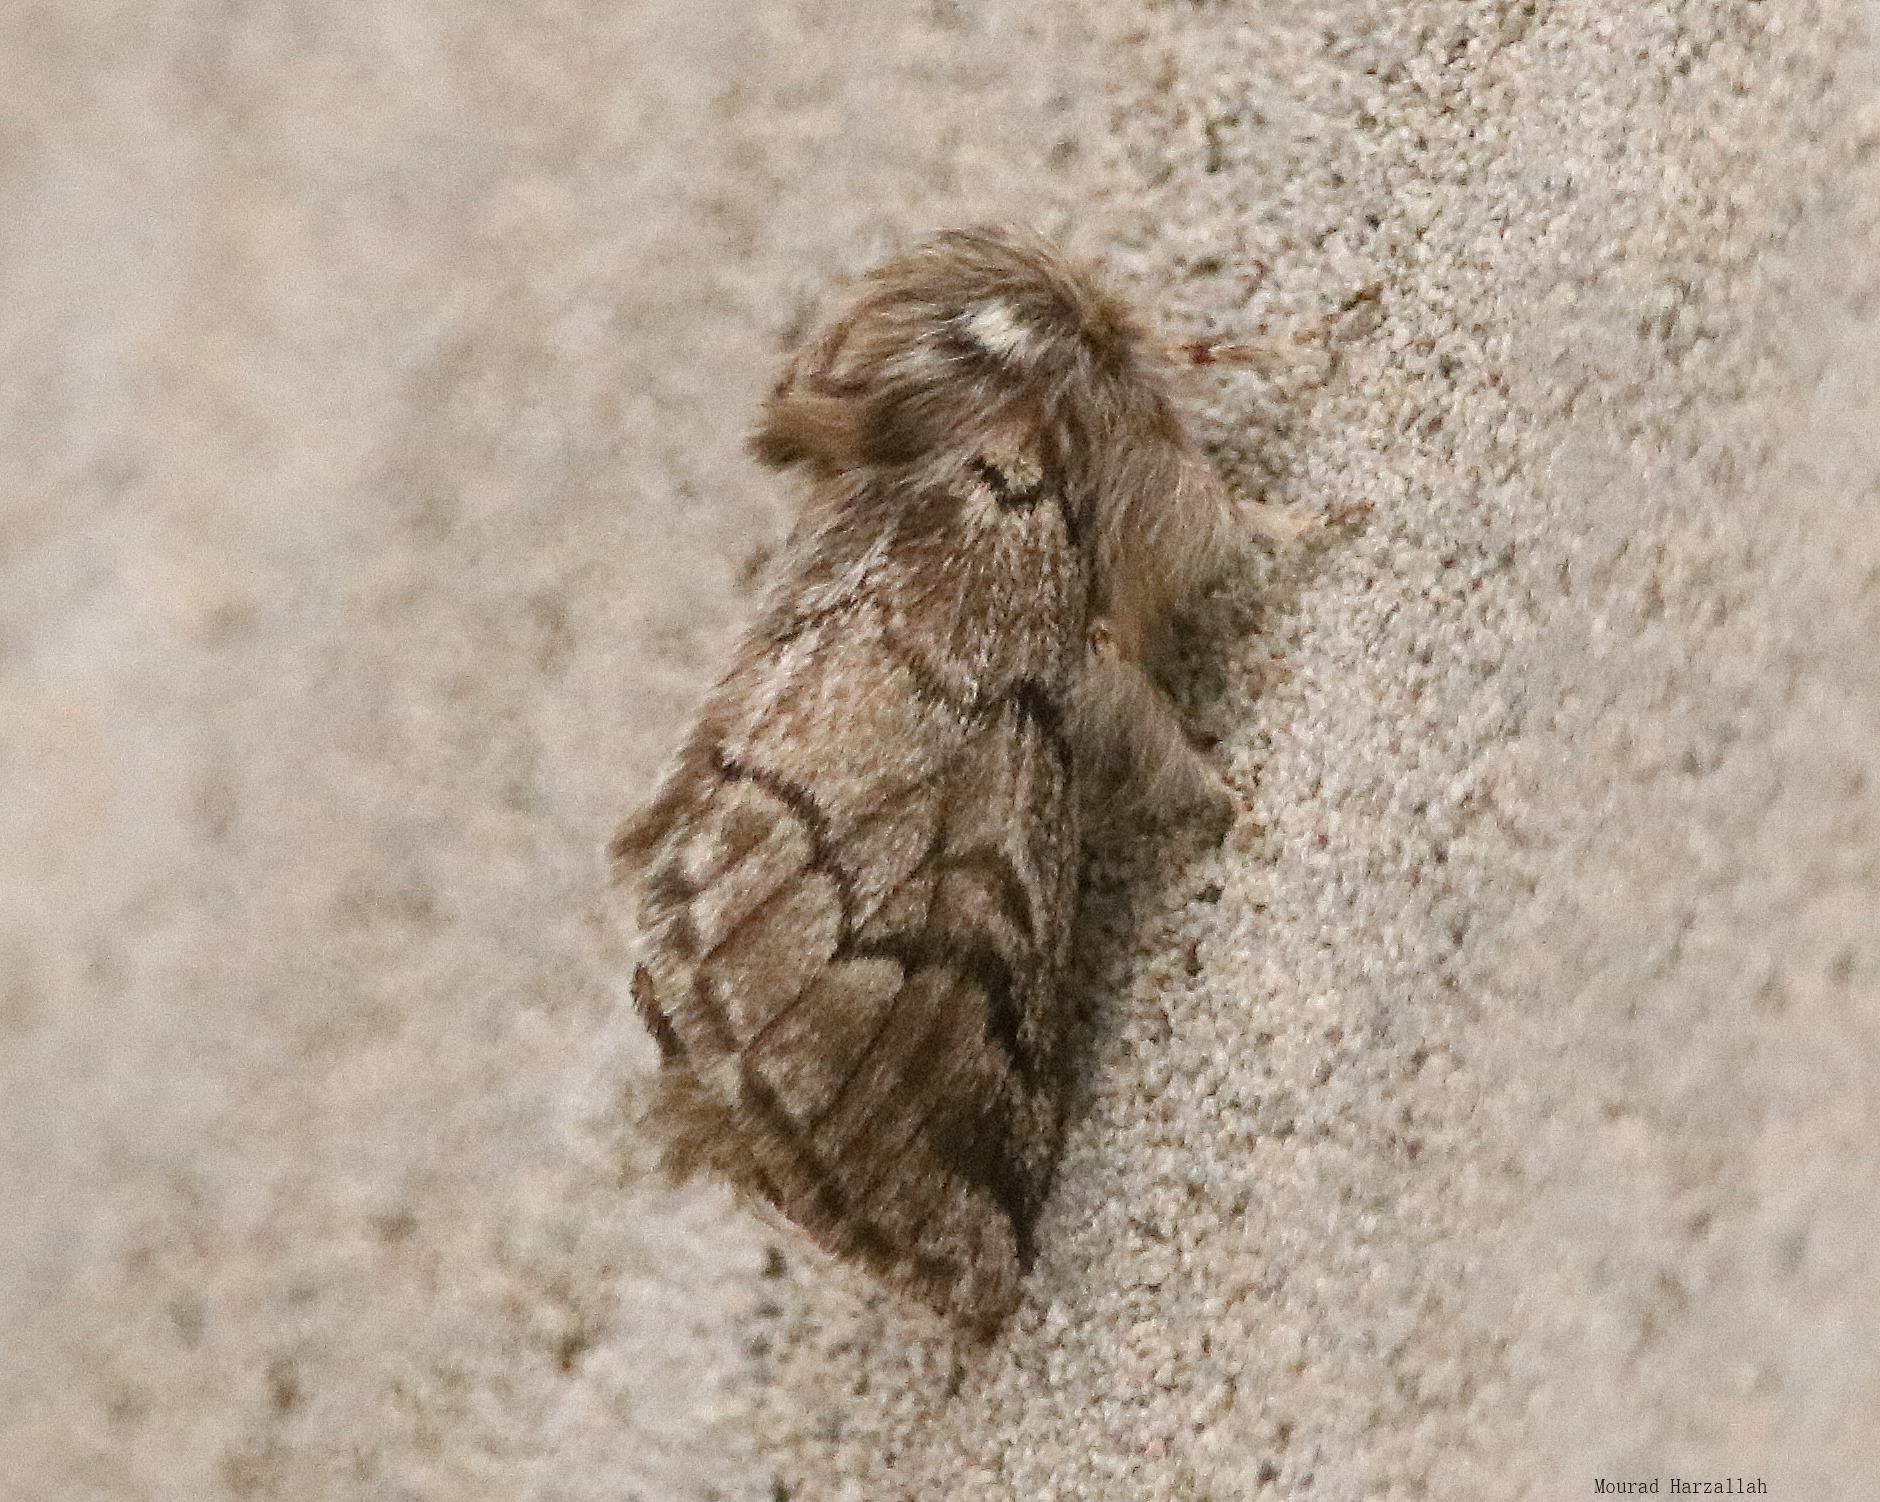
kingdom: Animalia
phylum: Arthropoda
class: Insecta
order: Lepidoptera
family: Notodontidae
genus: Thaumetopoea
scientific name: Thaumetopoea pityocampa
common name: Pine processionary
